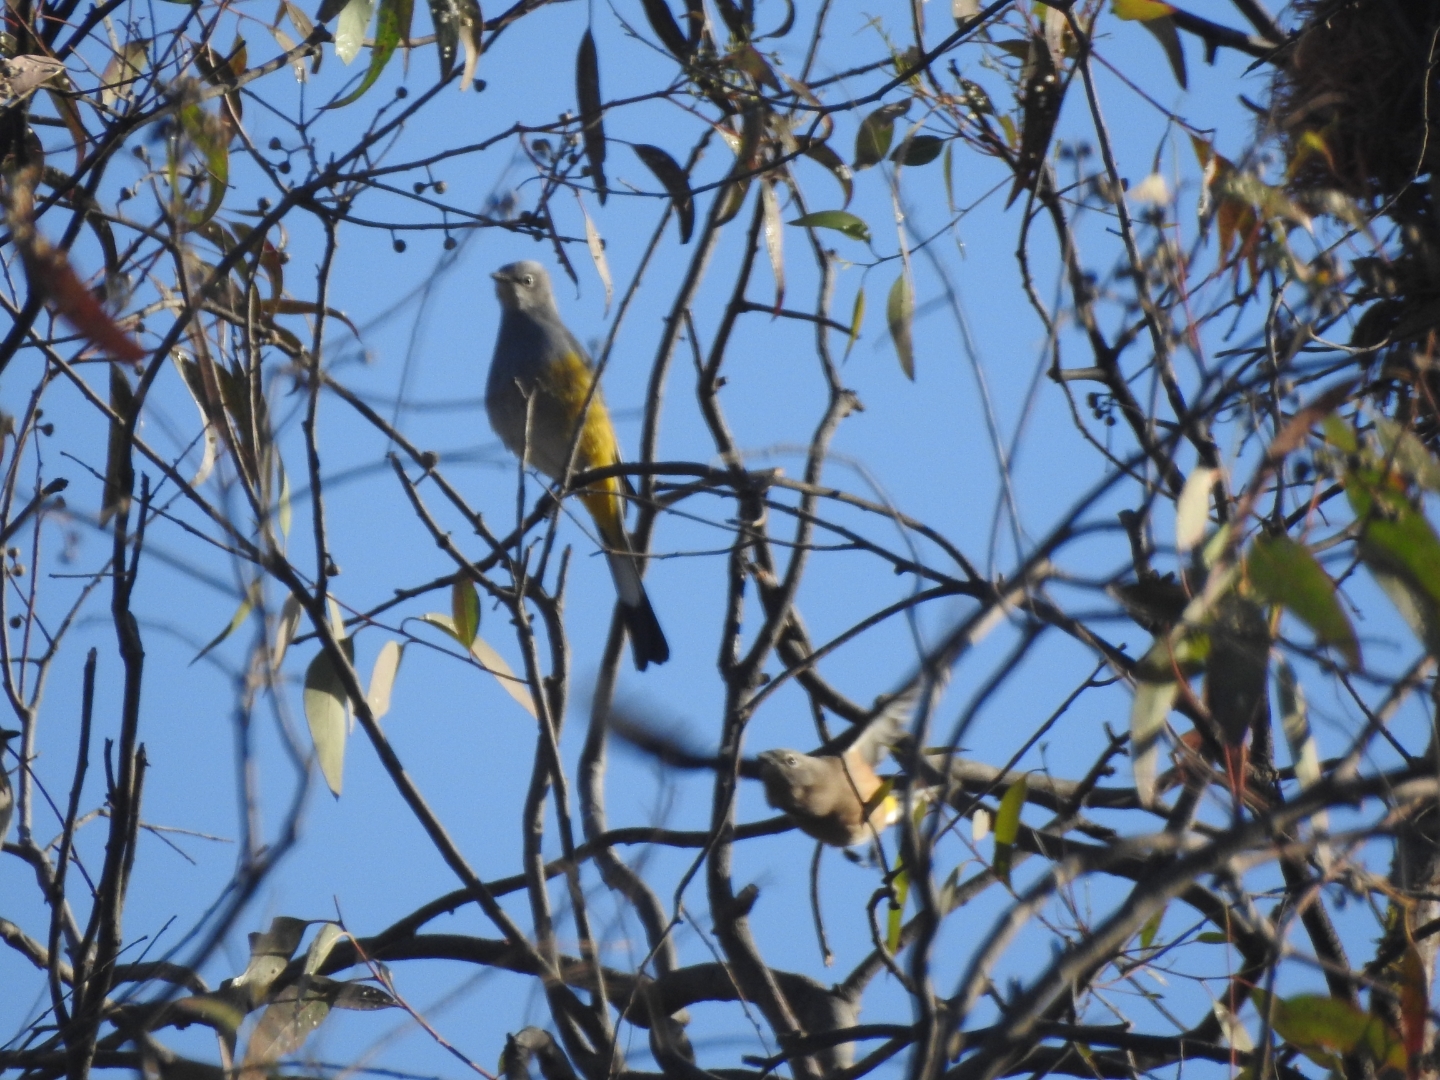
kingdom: Animalia
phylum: Chordata
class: Aves
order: Passeriformes
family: Ptilogonatidae
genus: Ptilogonys
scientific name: Ptilogonys cinereus
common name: Gray silky-flycatcher
